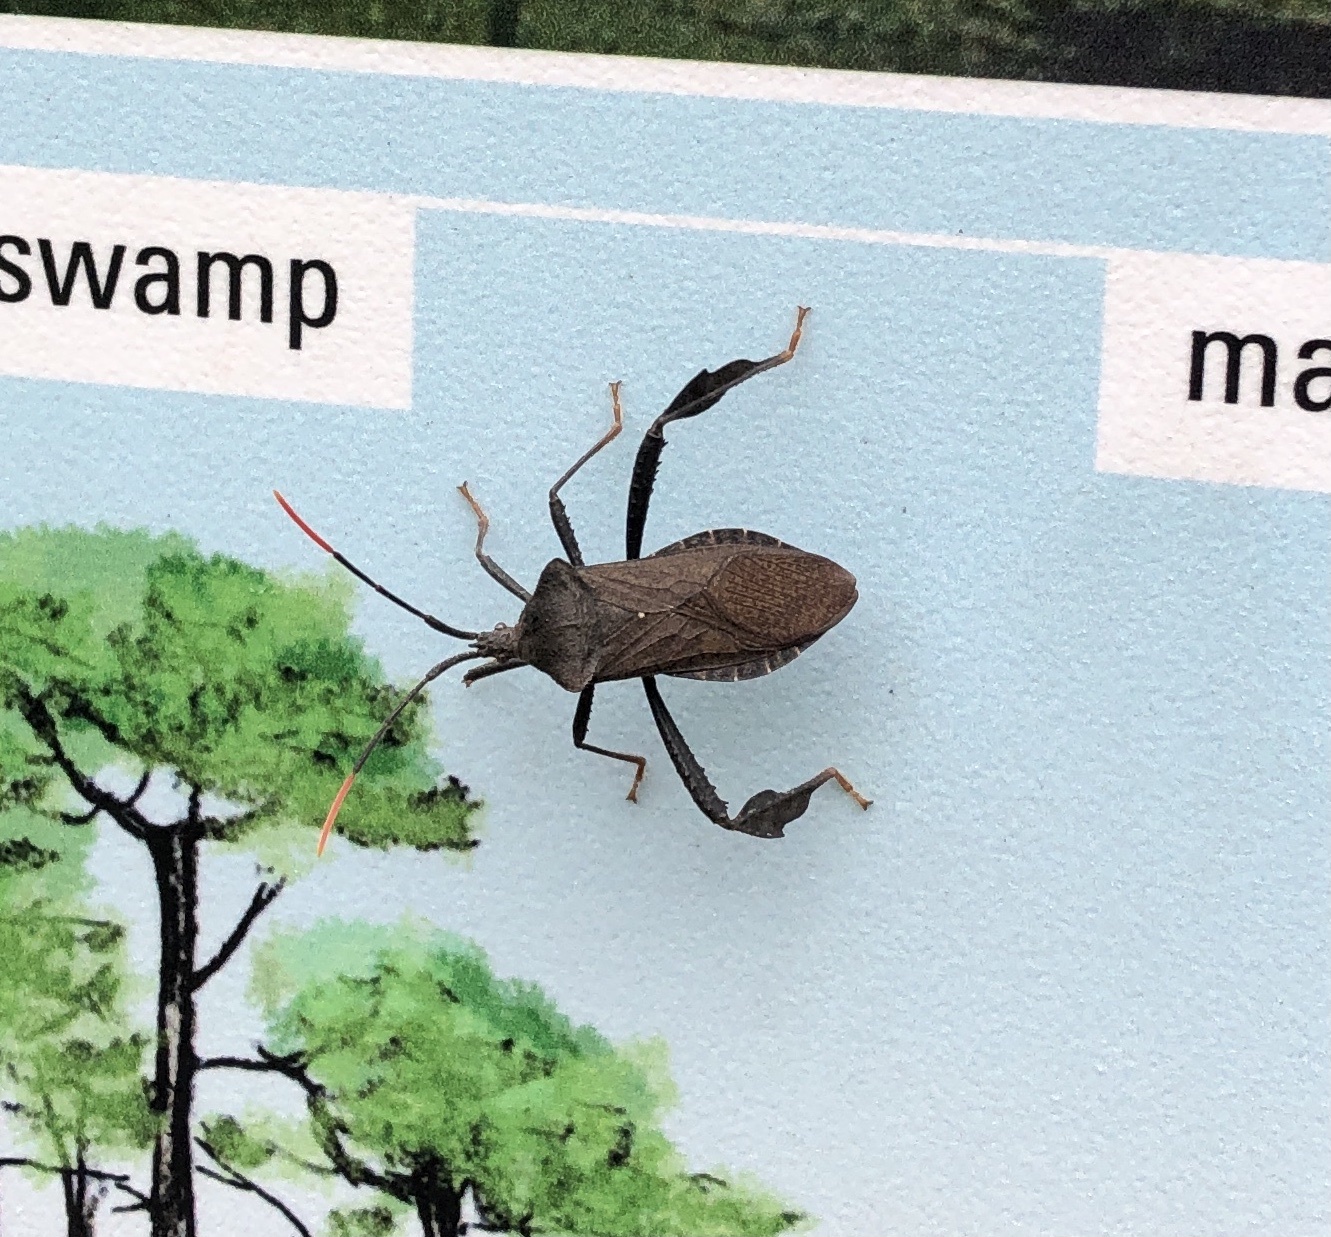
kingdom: Animalia
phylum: Arthropoda
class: Insecta
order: Hemiptera
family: Coreidae
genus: Acanthocephala
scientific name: Acanthocephala terminalis
